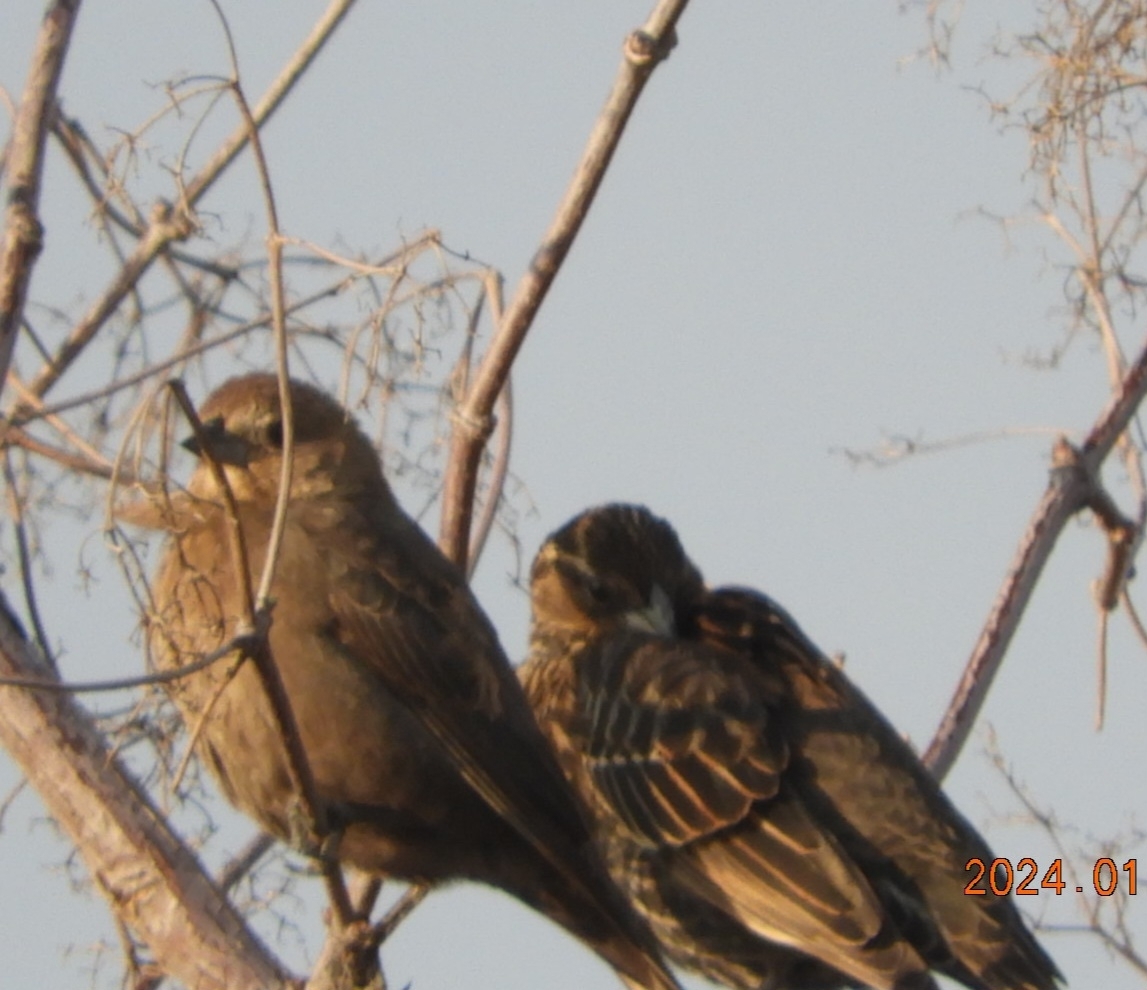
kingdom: Animalia
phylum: Chordata
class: Aves
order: Passeriformes
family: Icteridae
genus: Agelaius
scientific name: Agelaius phoeniceus
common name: Red-winged blackbird
